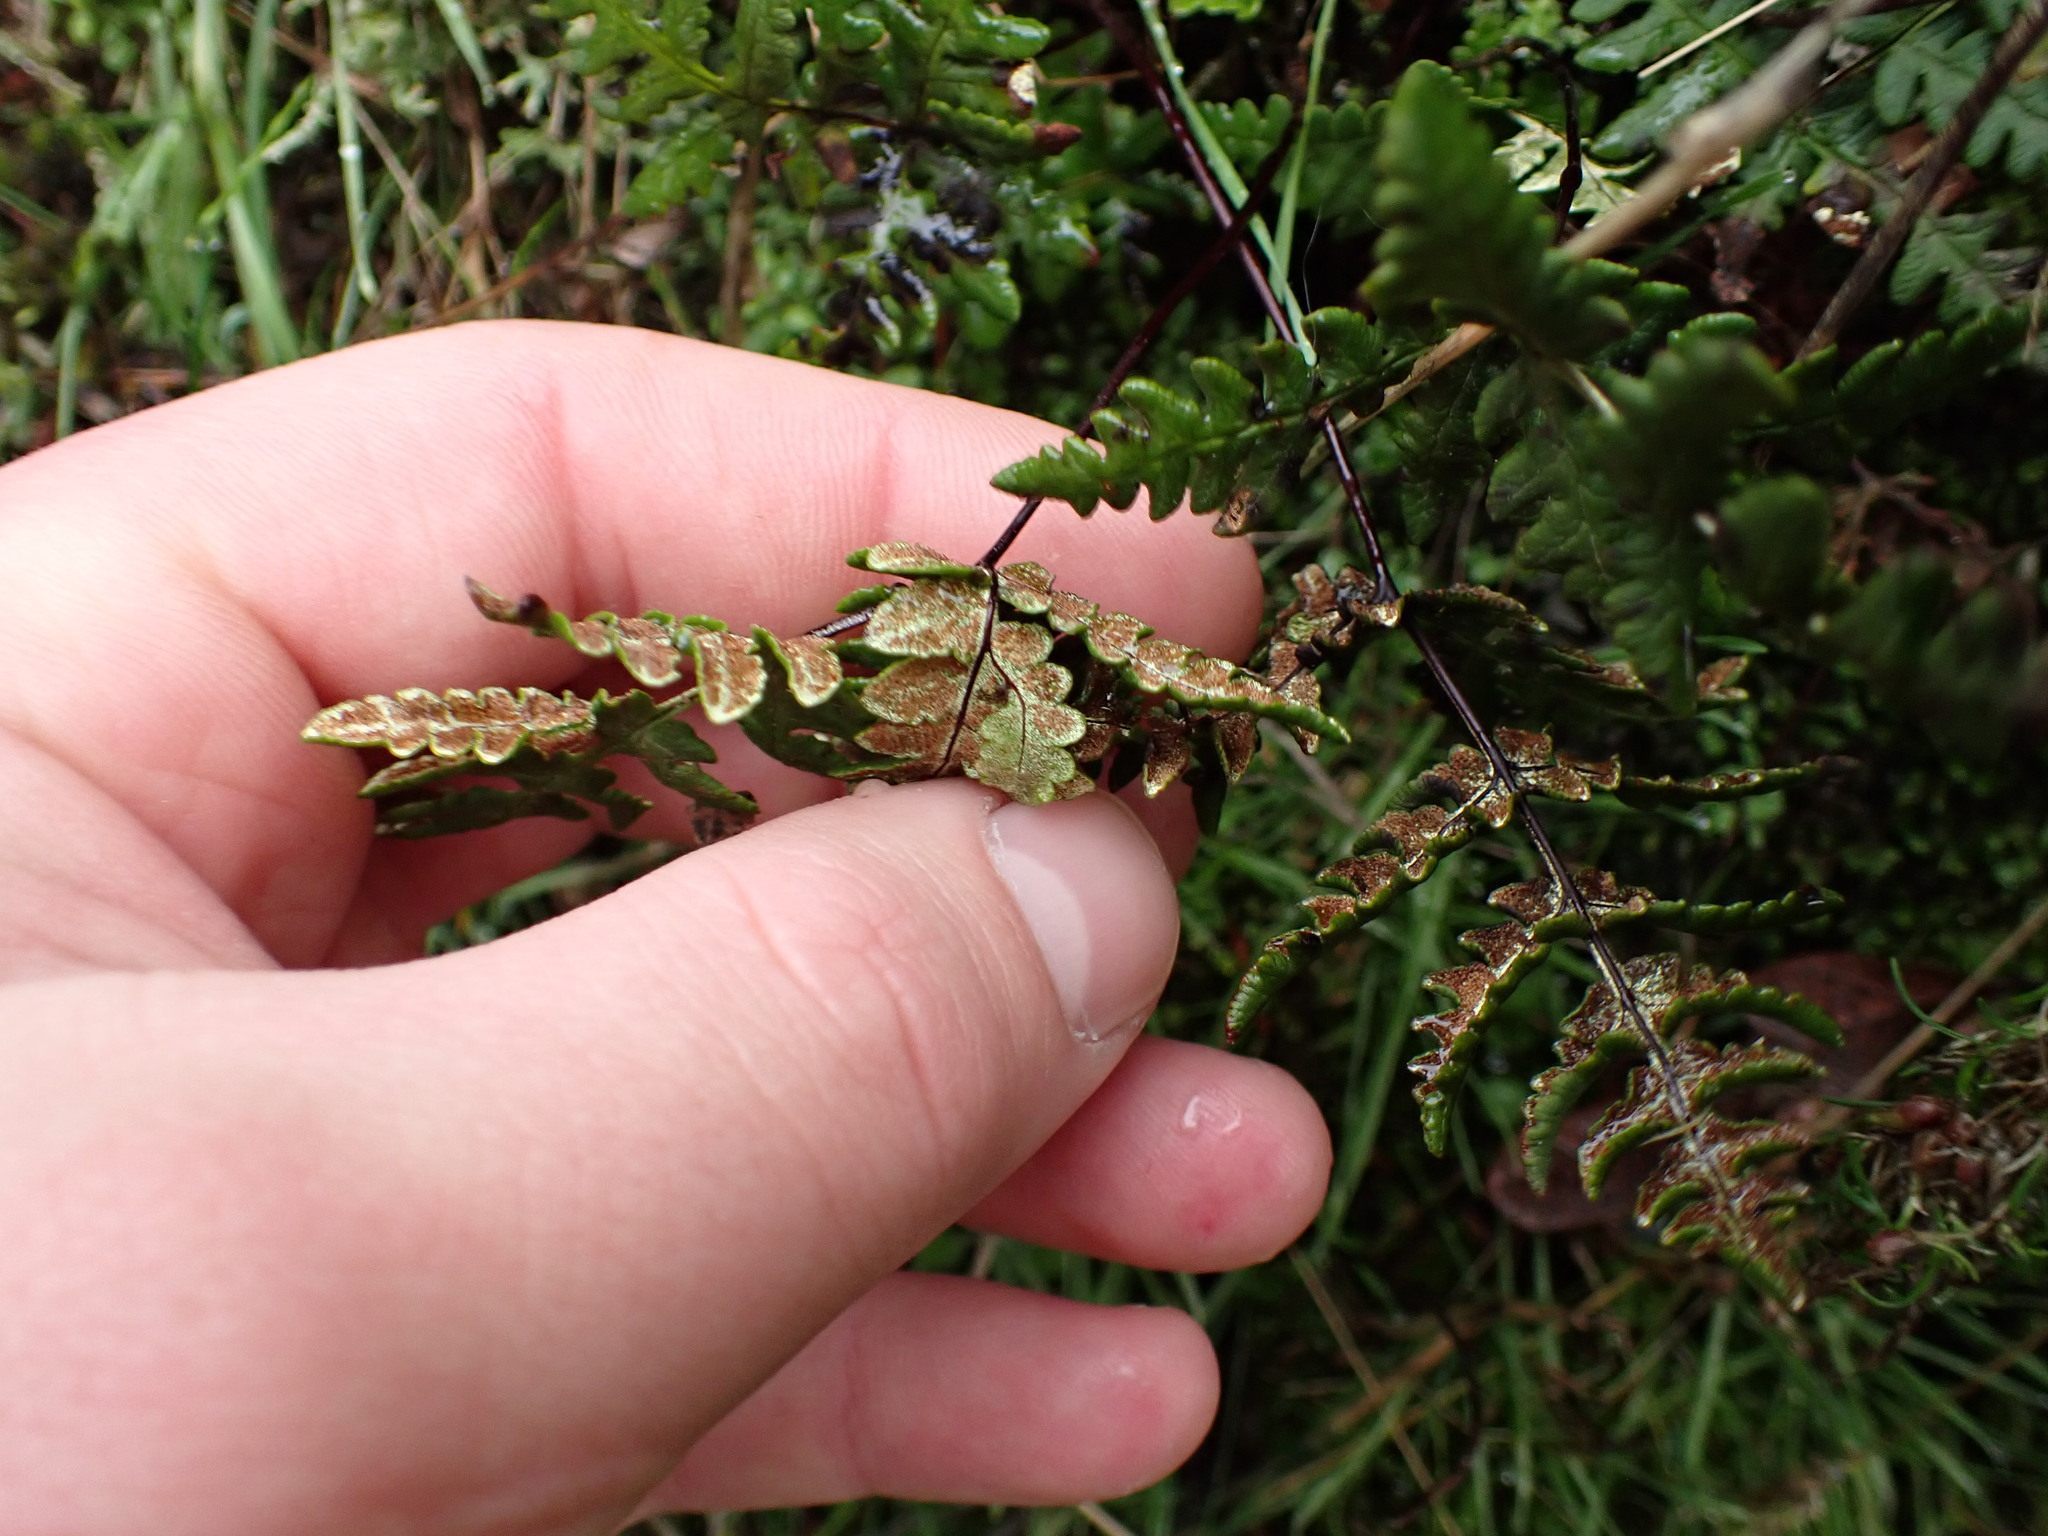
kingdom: Plantae
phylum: Tracheophyta
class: Polypodiopsida
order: Polypodiales
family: Pteridaceae
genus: Pentagramma
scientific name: Pentagramma triangularis
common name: Gold fern
